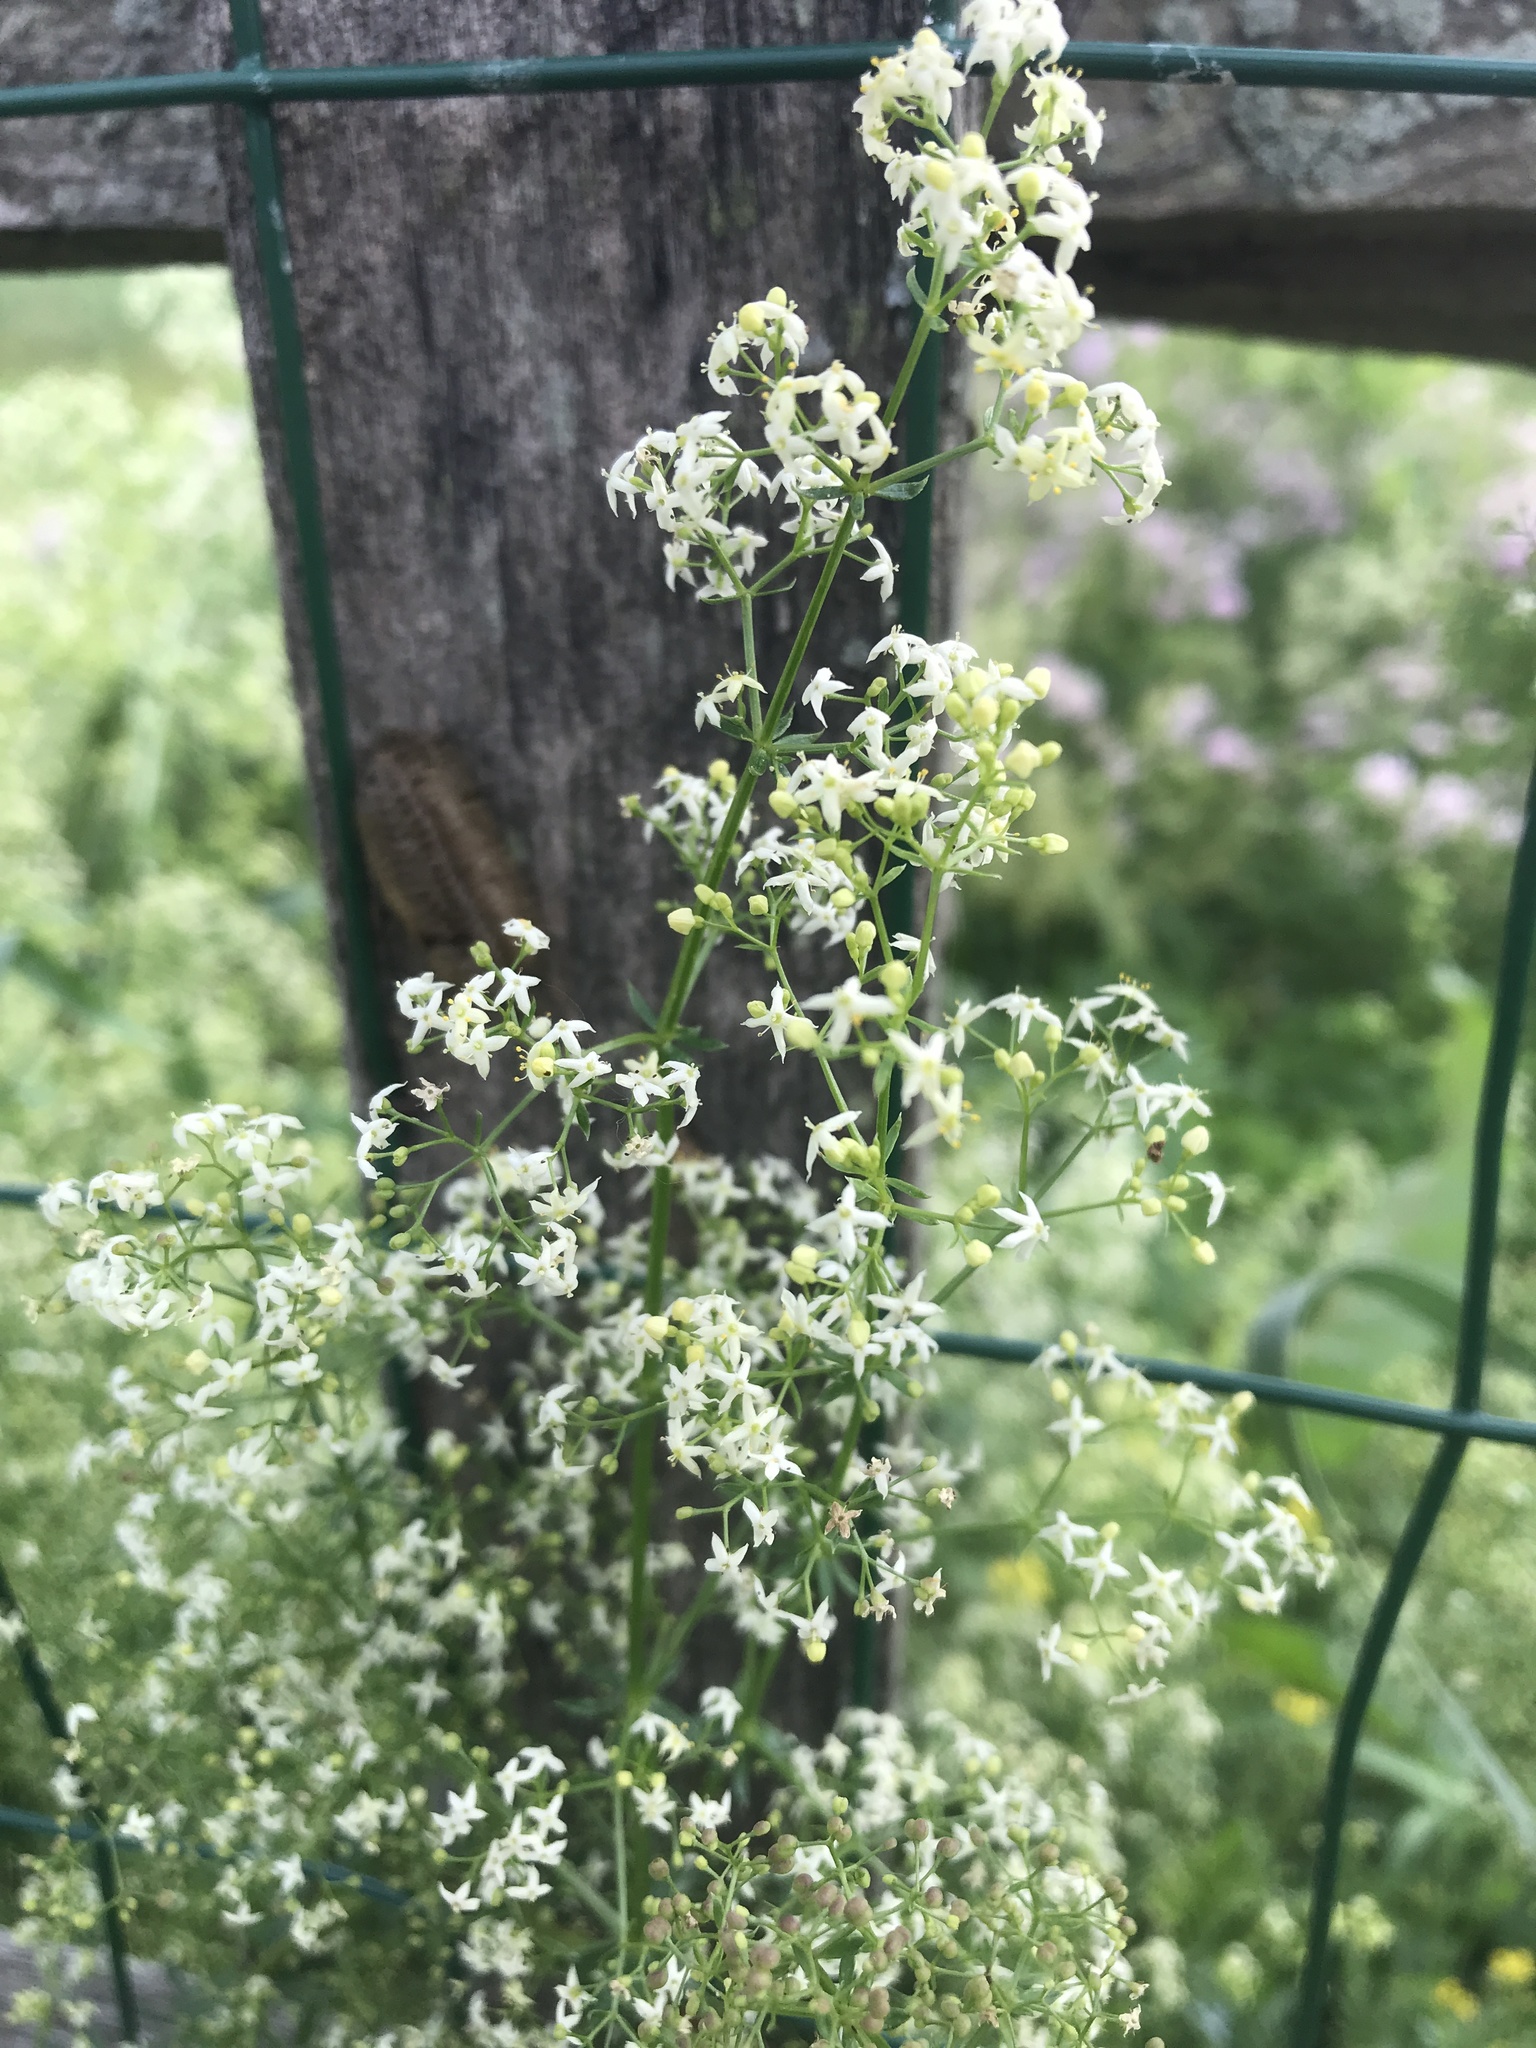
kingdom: Plantae
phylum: Tracheophyta
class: Magnoliopsida
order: Gentianales
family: Rubiaceae
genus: Galium
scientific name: Galium mollugo
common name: Hedge bedstraw
